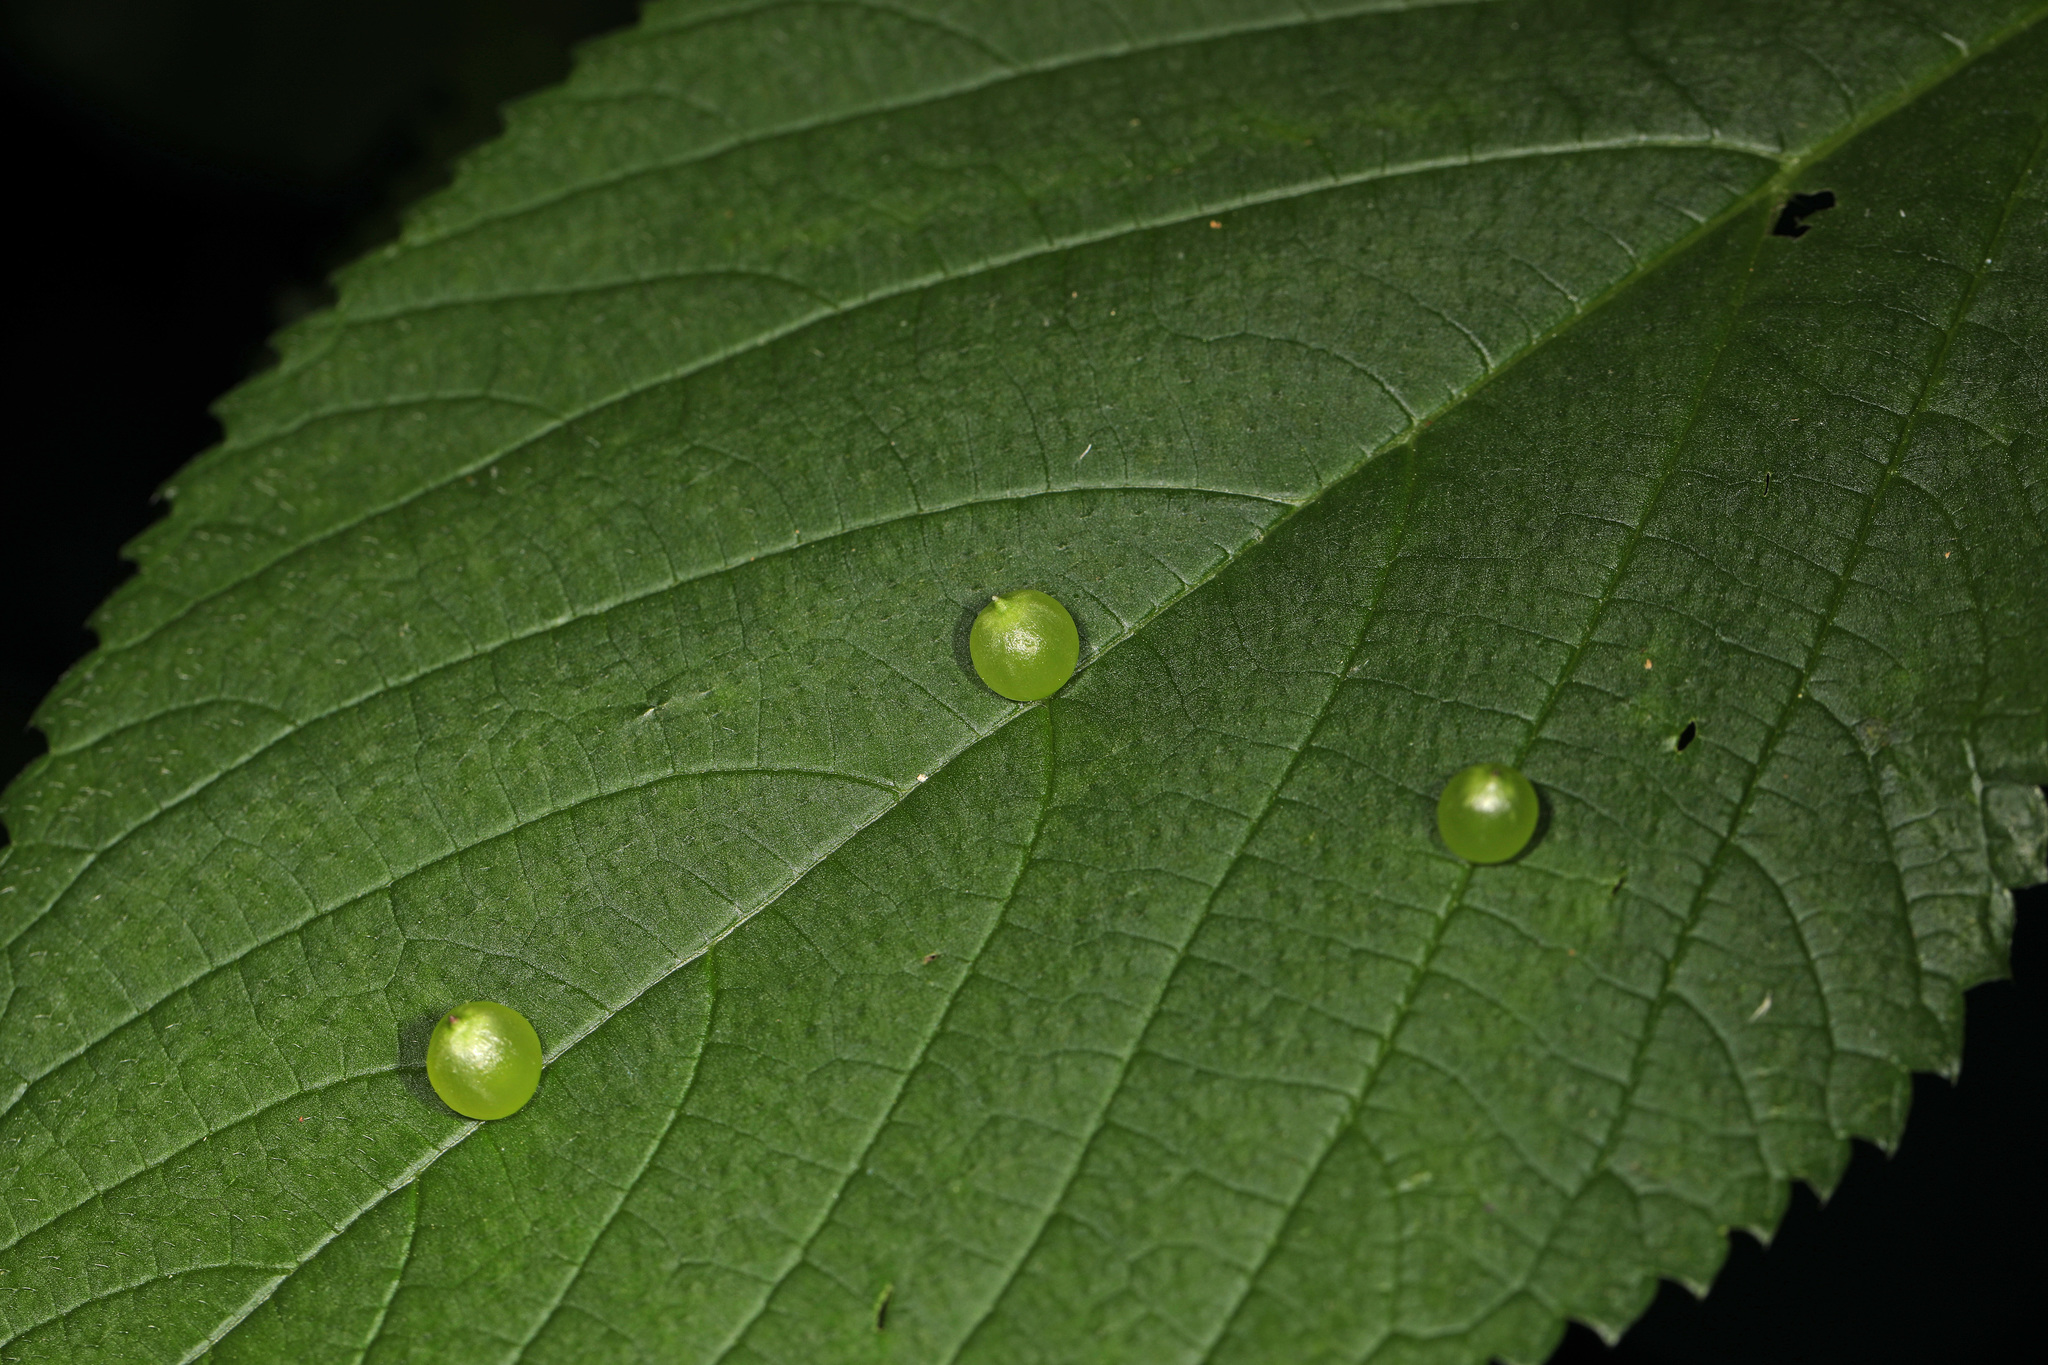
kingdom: Animalia
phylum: Arthropoda
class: Insecta
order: Diptera
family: Cecidomyiidae
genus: Dasineura
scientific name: Dasineura investita
